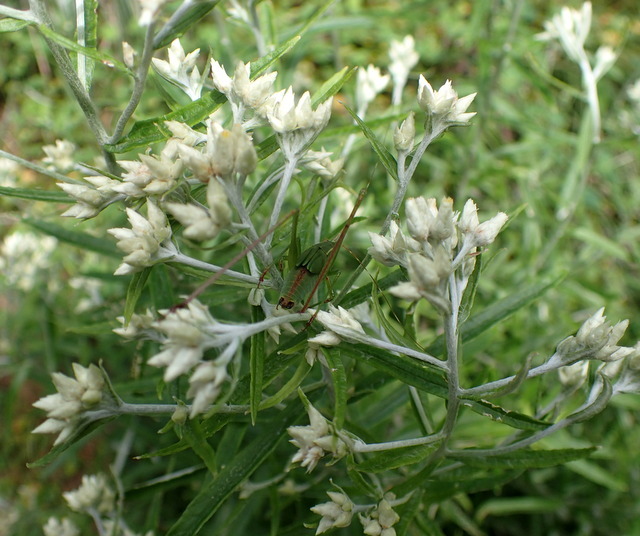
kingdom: Plantae
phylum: Tracheophyta
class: Magnoliopsida
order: Asterales
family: Asteraceae
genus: Pseudognaphalium
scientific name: Pseudognaphalium obtusifolium
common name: Eastern rabbit-tobacco
